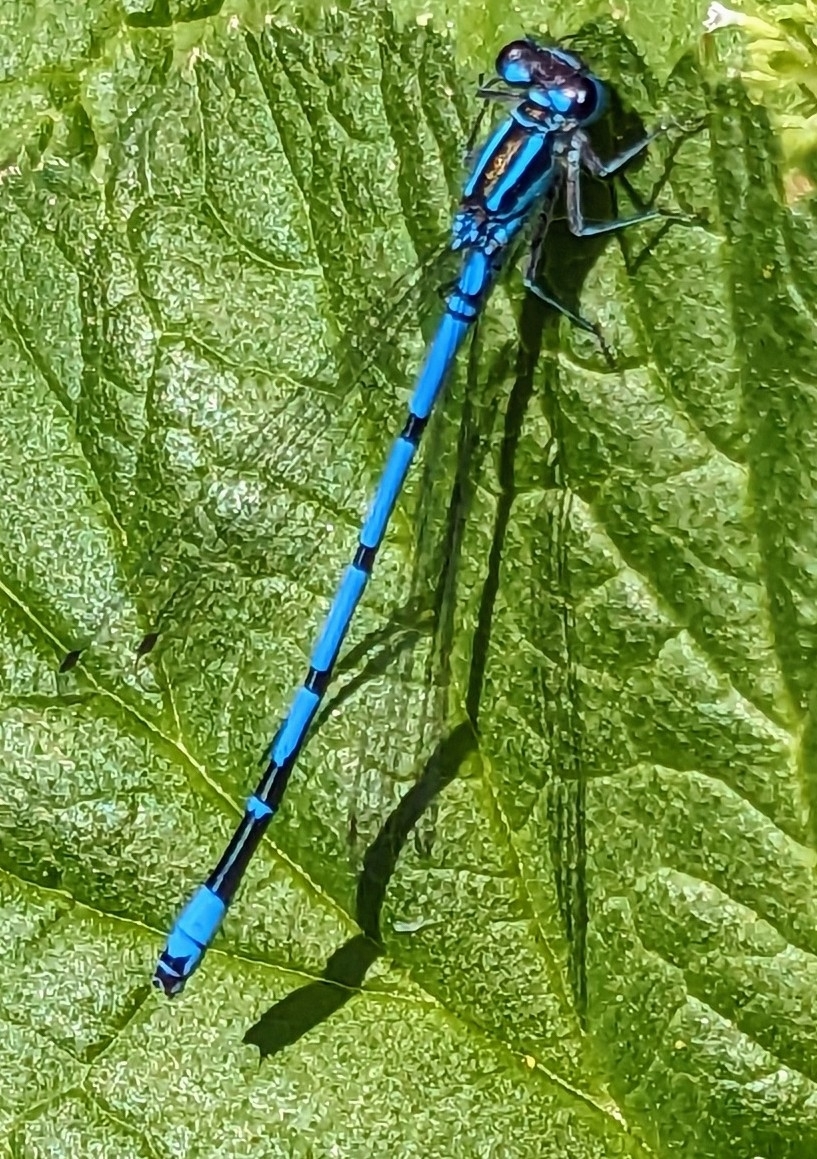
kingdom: Animalia
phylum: Arthropoda
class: Insecta
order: Odonata
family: Coenagrionidae
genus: Coenagrion
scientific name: Coenagrion puella
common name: Azure damselfly
